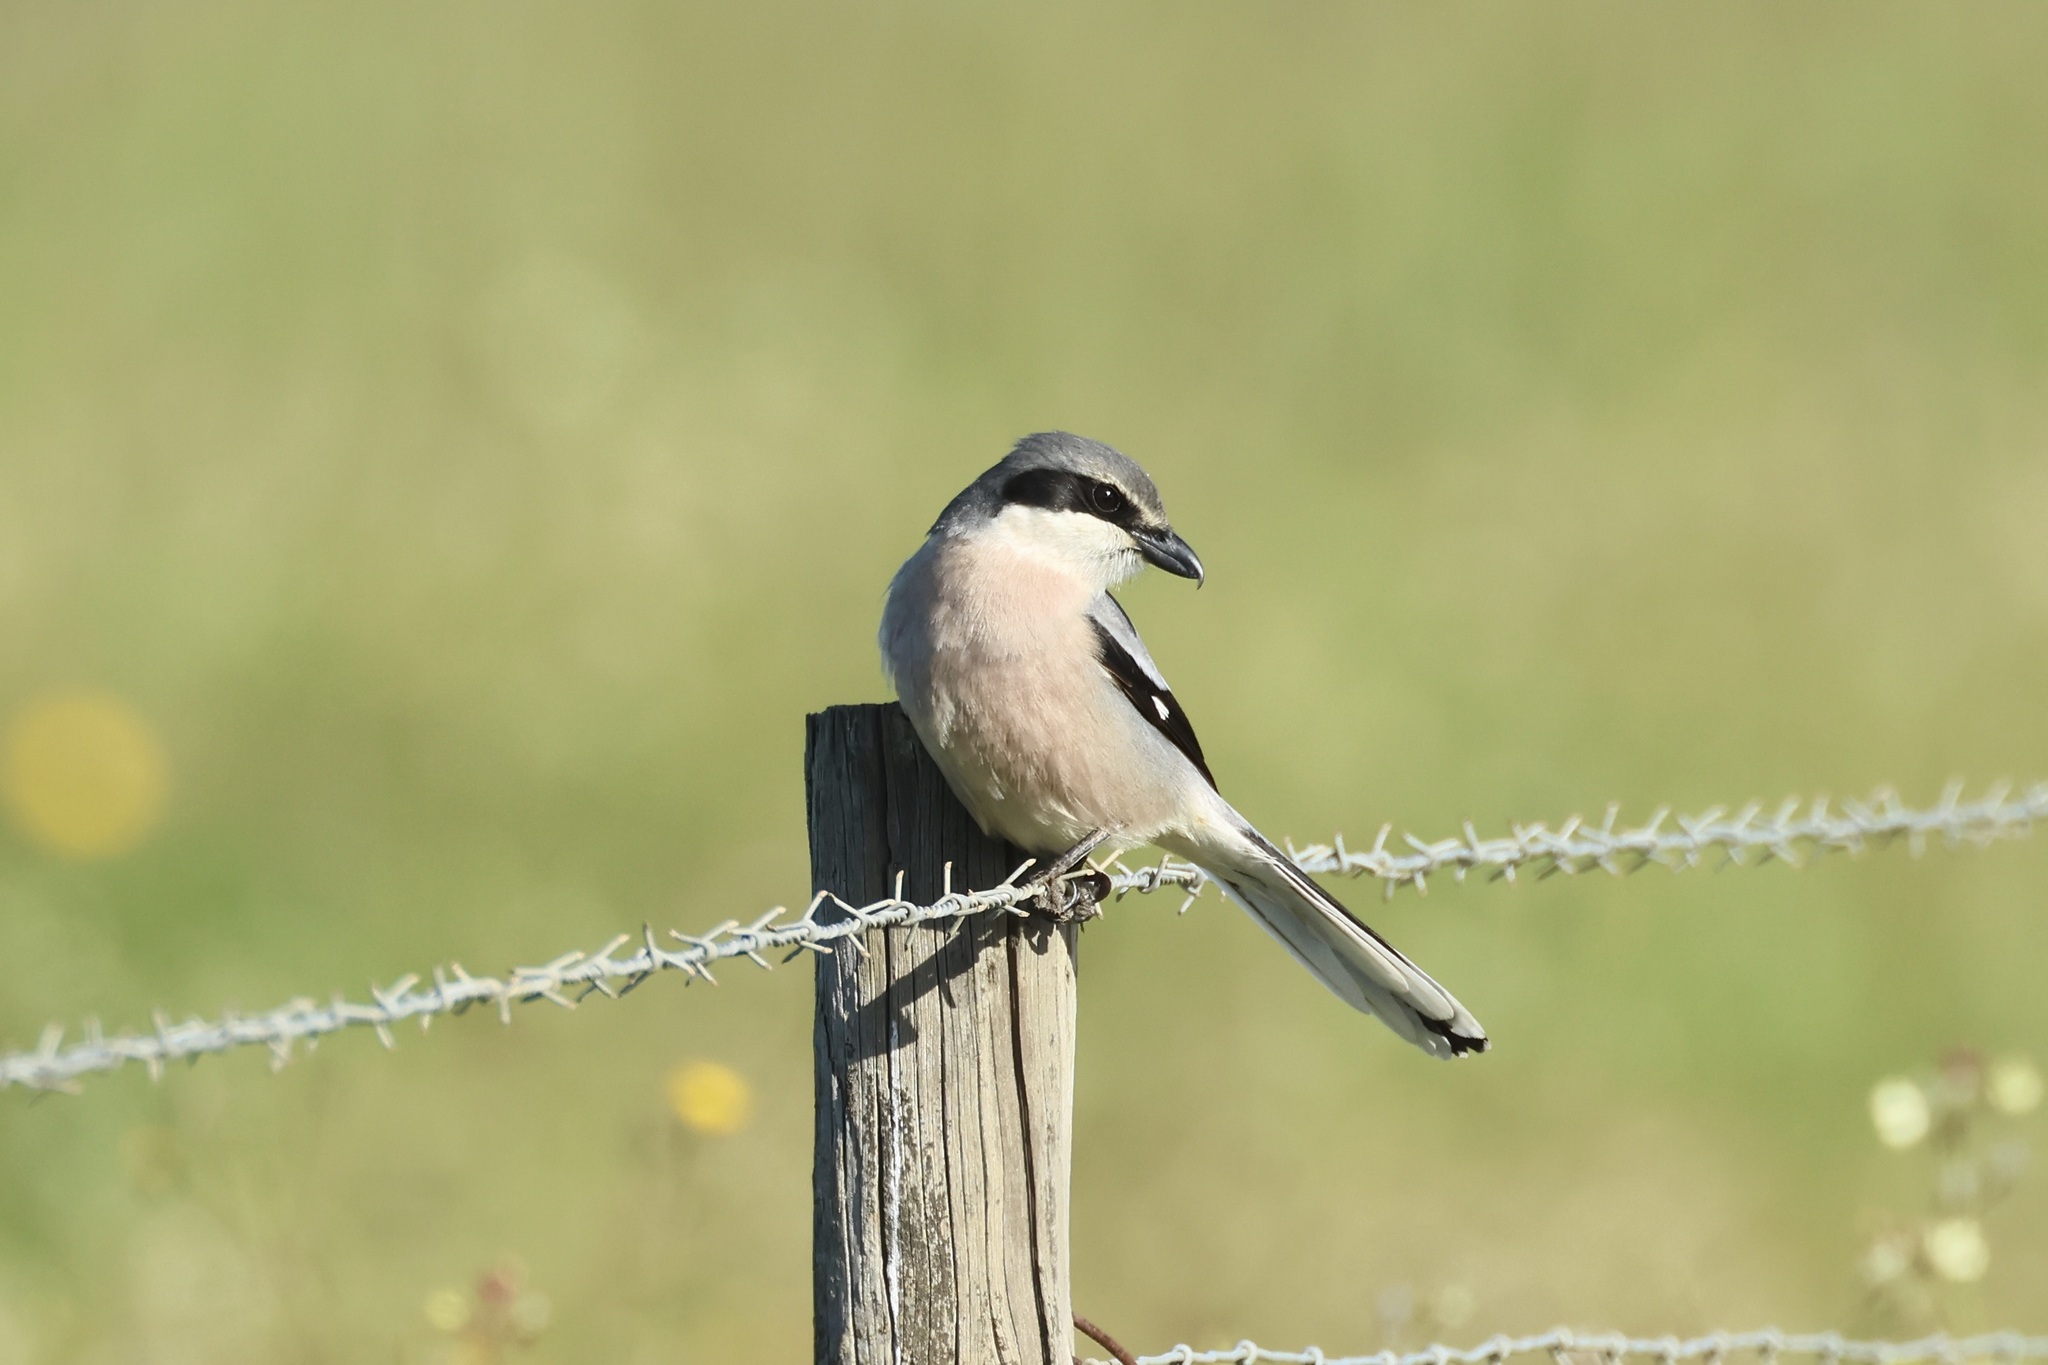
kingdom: Animalia
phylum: Chordata
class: Aves
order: Passeriformes
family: Laniidae
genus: Lanius
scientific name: Lanius meridionalis
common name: Iberian grey shrike
